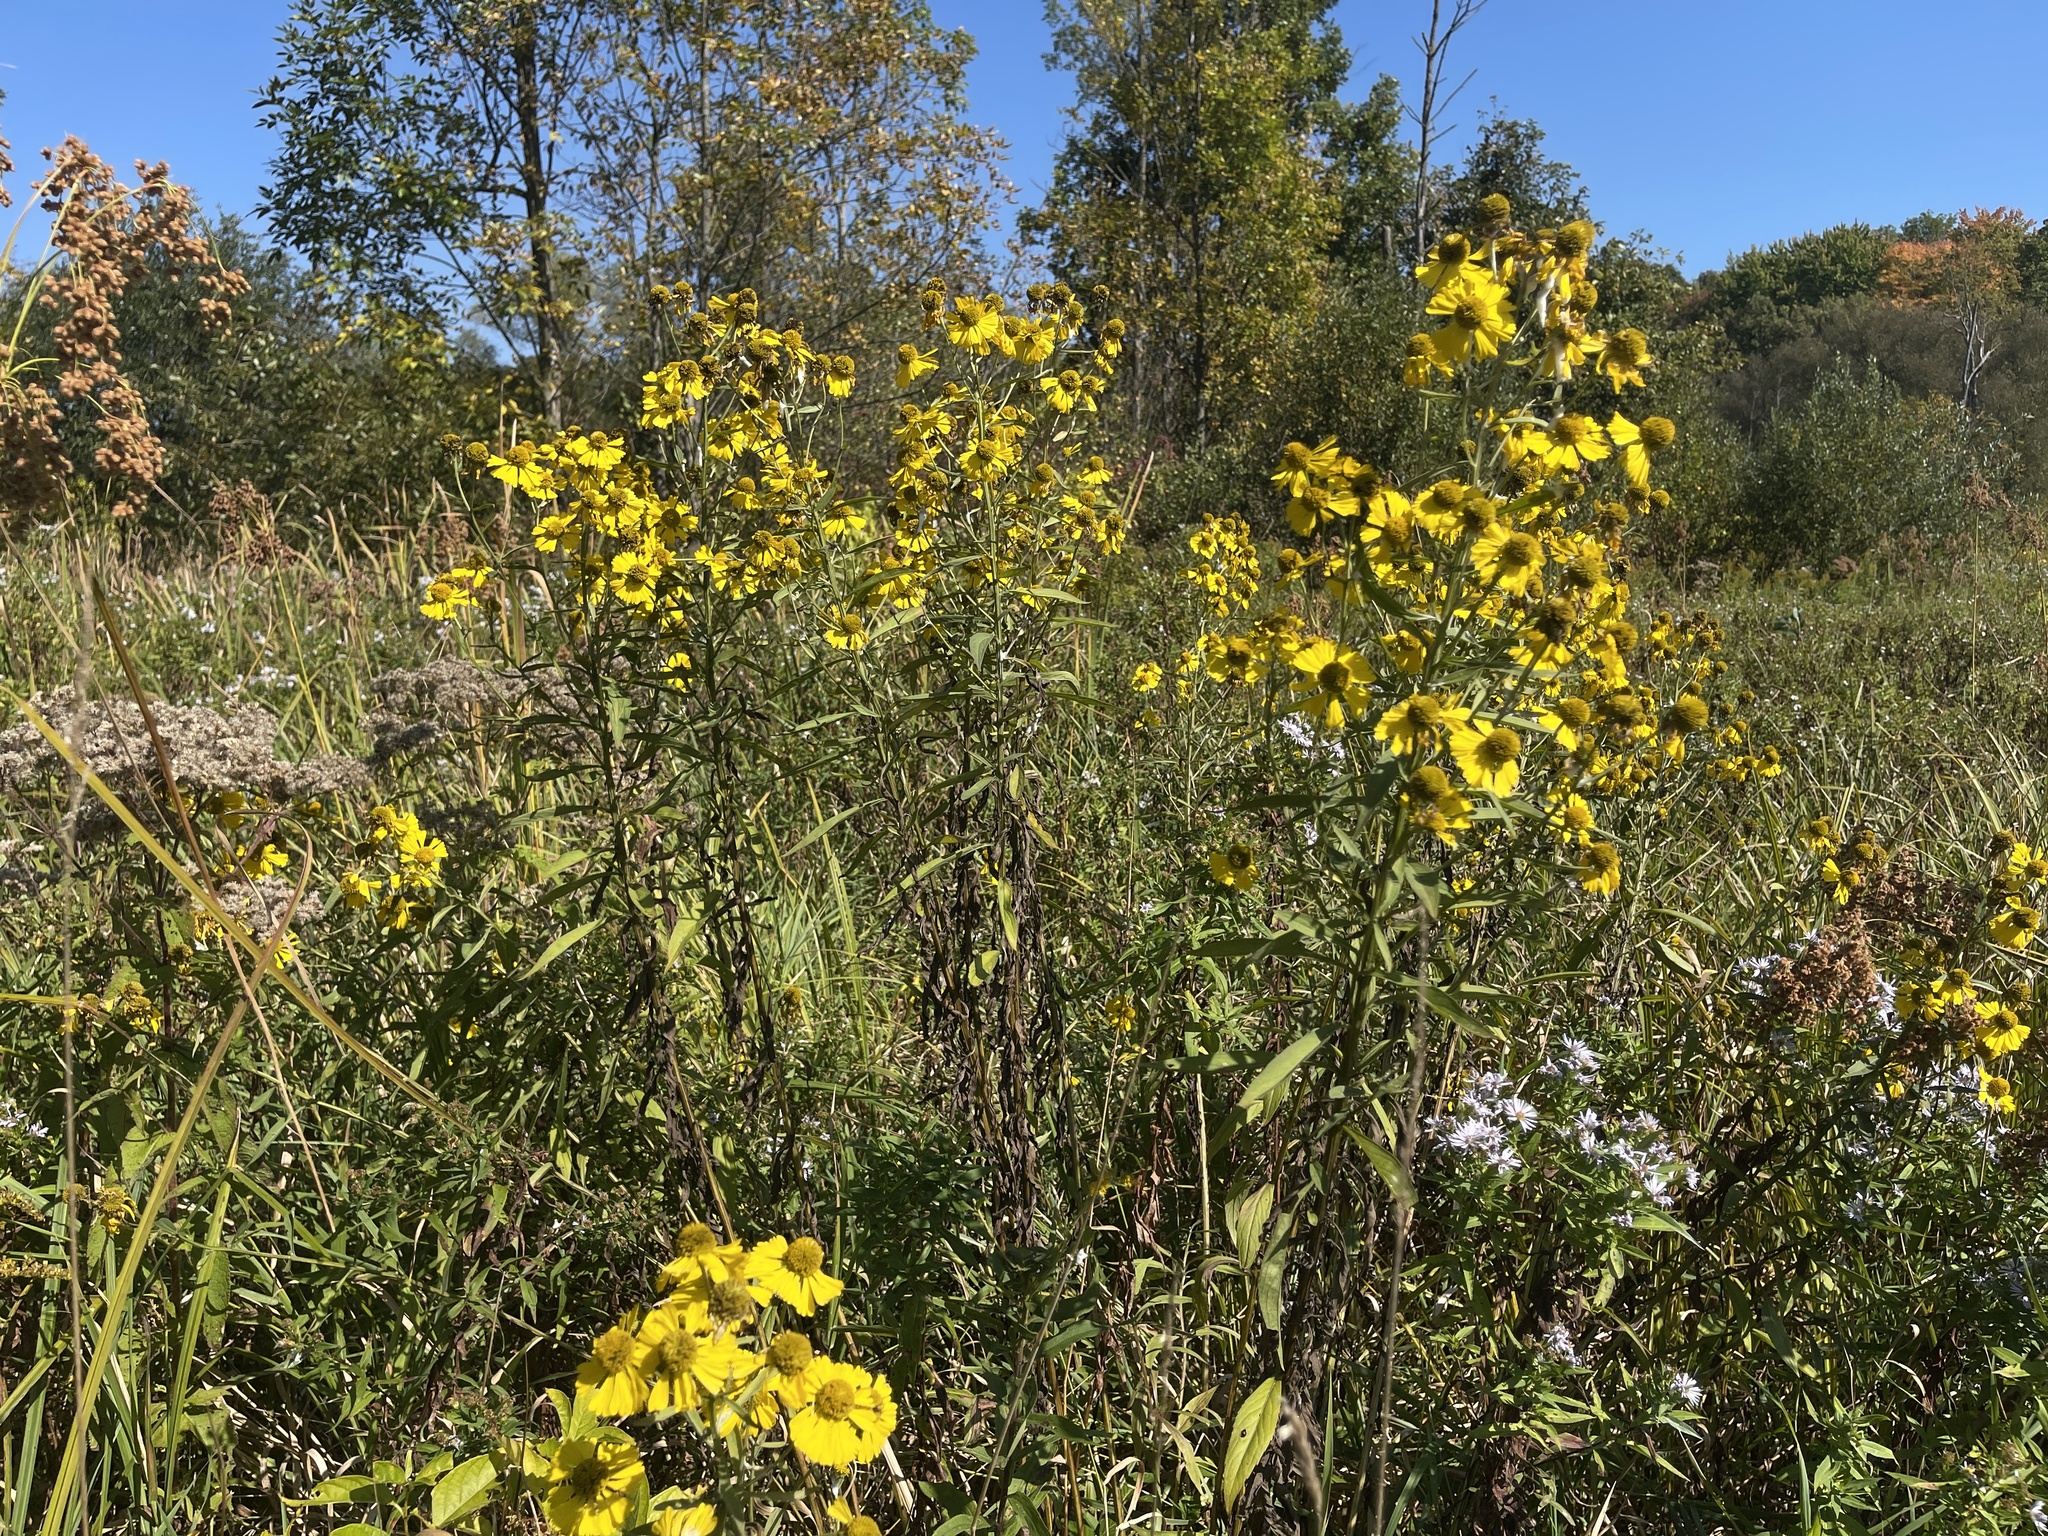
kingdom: Plantae
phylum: Tracheophyta
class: Magnoliopsida
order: Asterales
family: Asteraceae
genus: Helenium
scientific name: Helenium autumnale
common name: Sneezeweed
